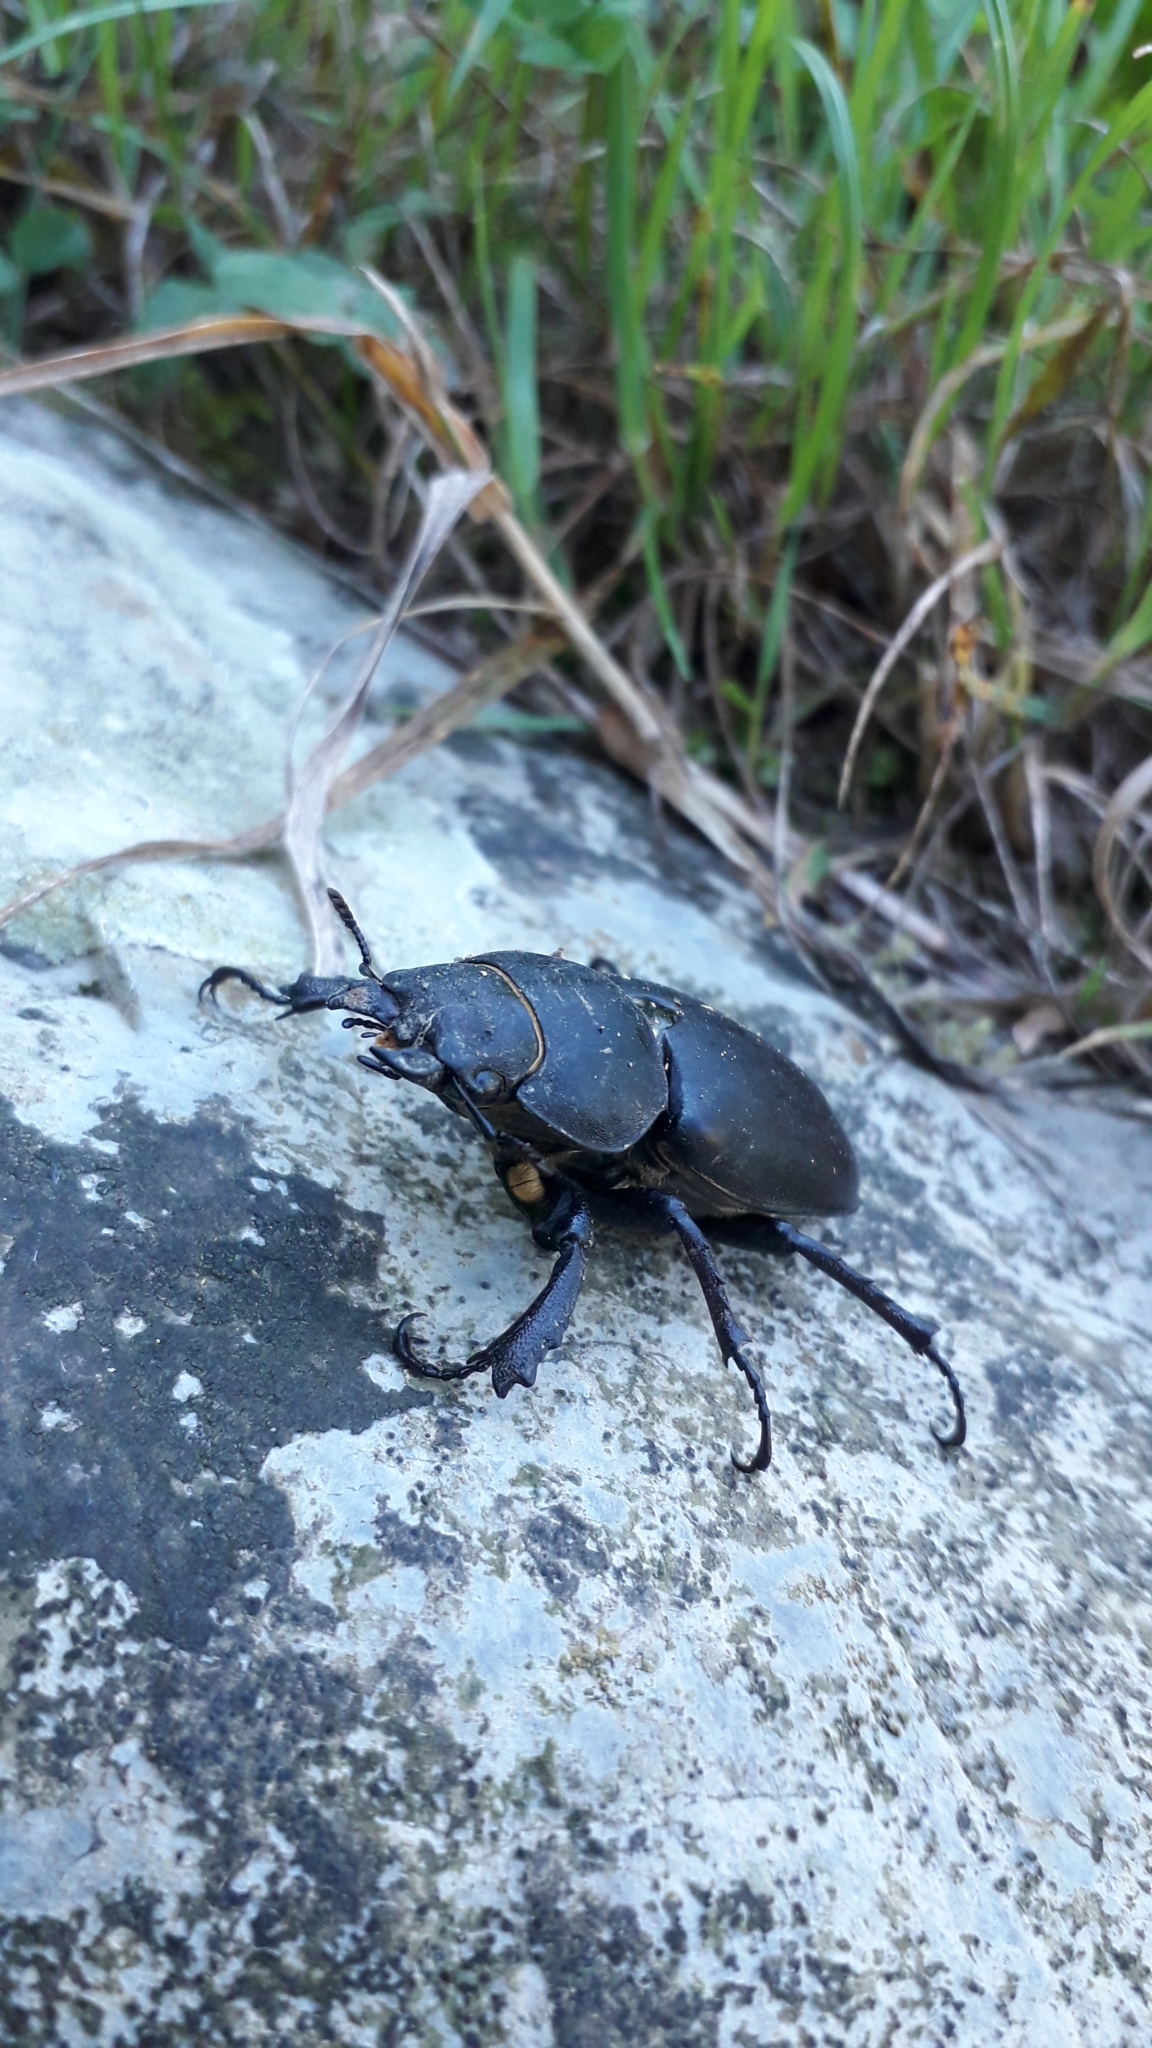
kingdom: Animalia
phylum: Arthropoda
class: Insecta
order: Coleoptera
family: Lucanidae
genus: Lucanus
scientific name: Lucanus cervus
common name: Stag beetle
